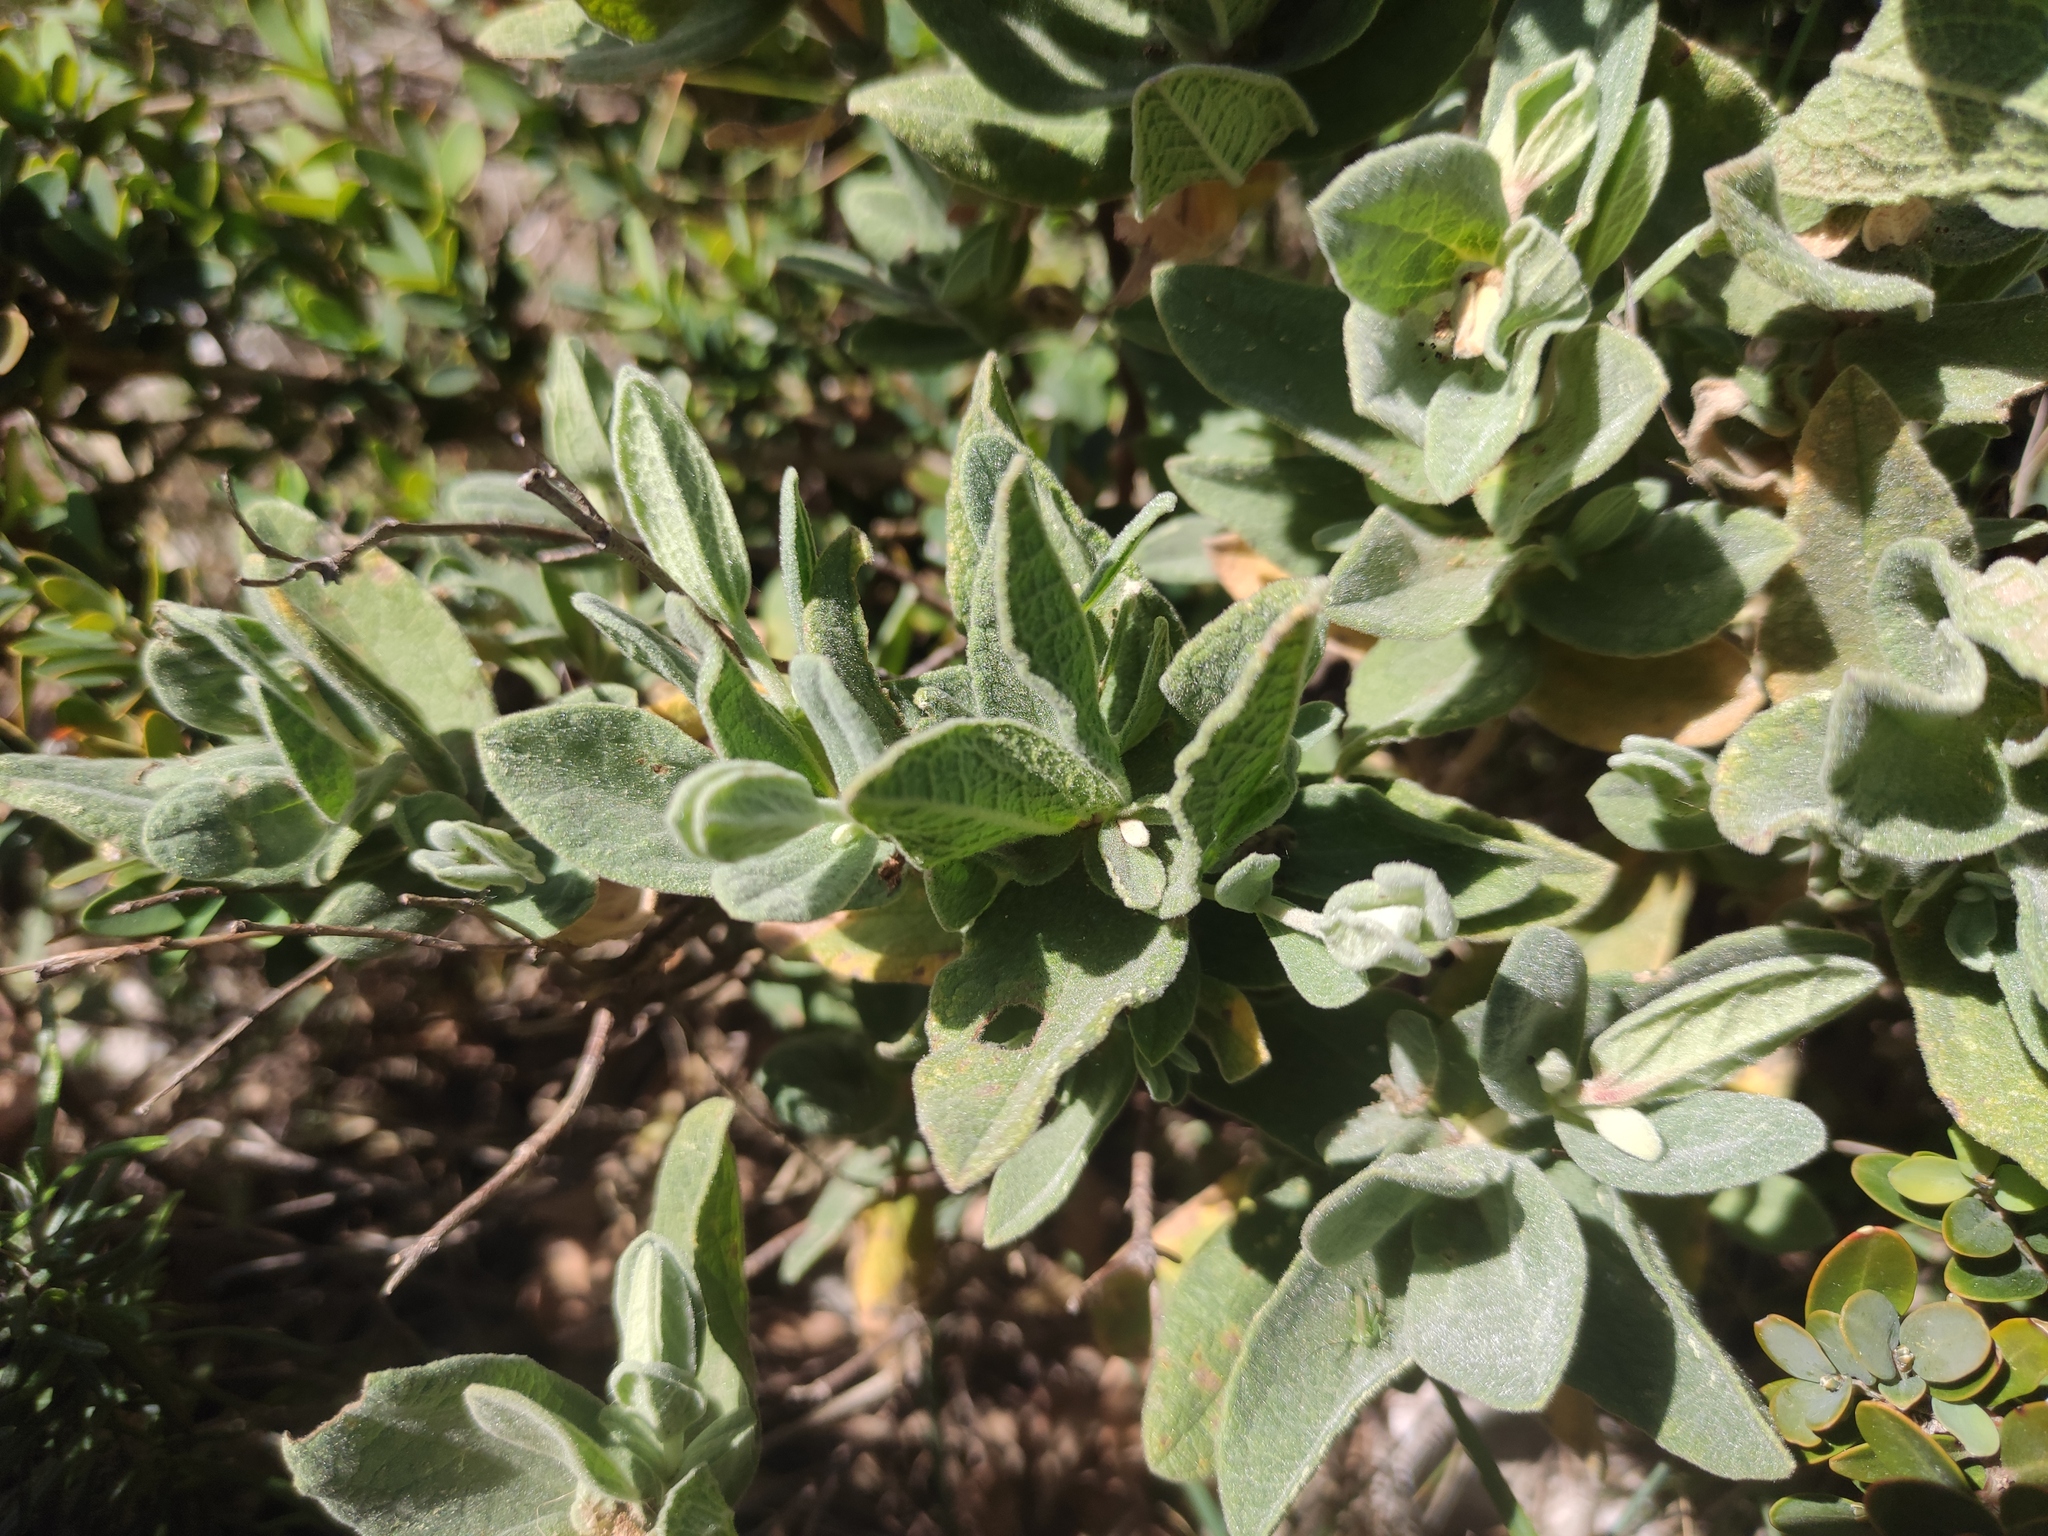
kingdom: Plantae
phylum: Tracheophyta
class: Magnoliopsida
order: Malvales
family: Cistaceae
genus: Cistus
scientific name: Cistus albidus
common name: White-leaf rock-rose
